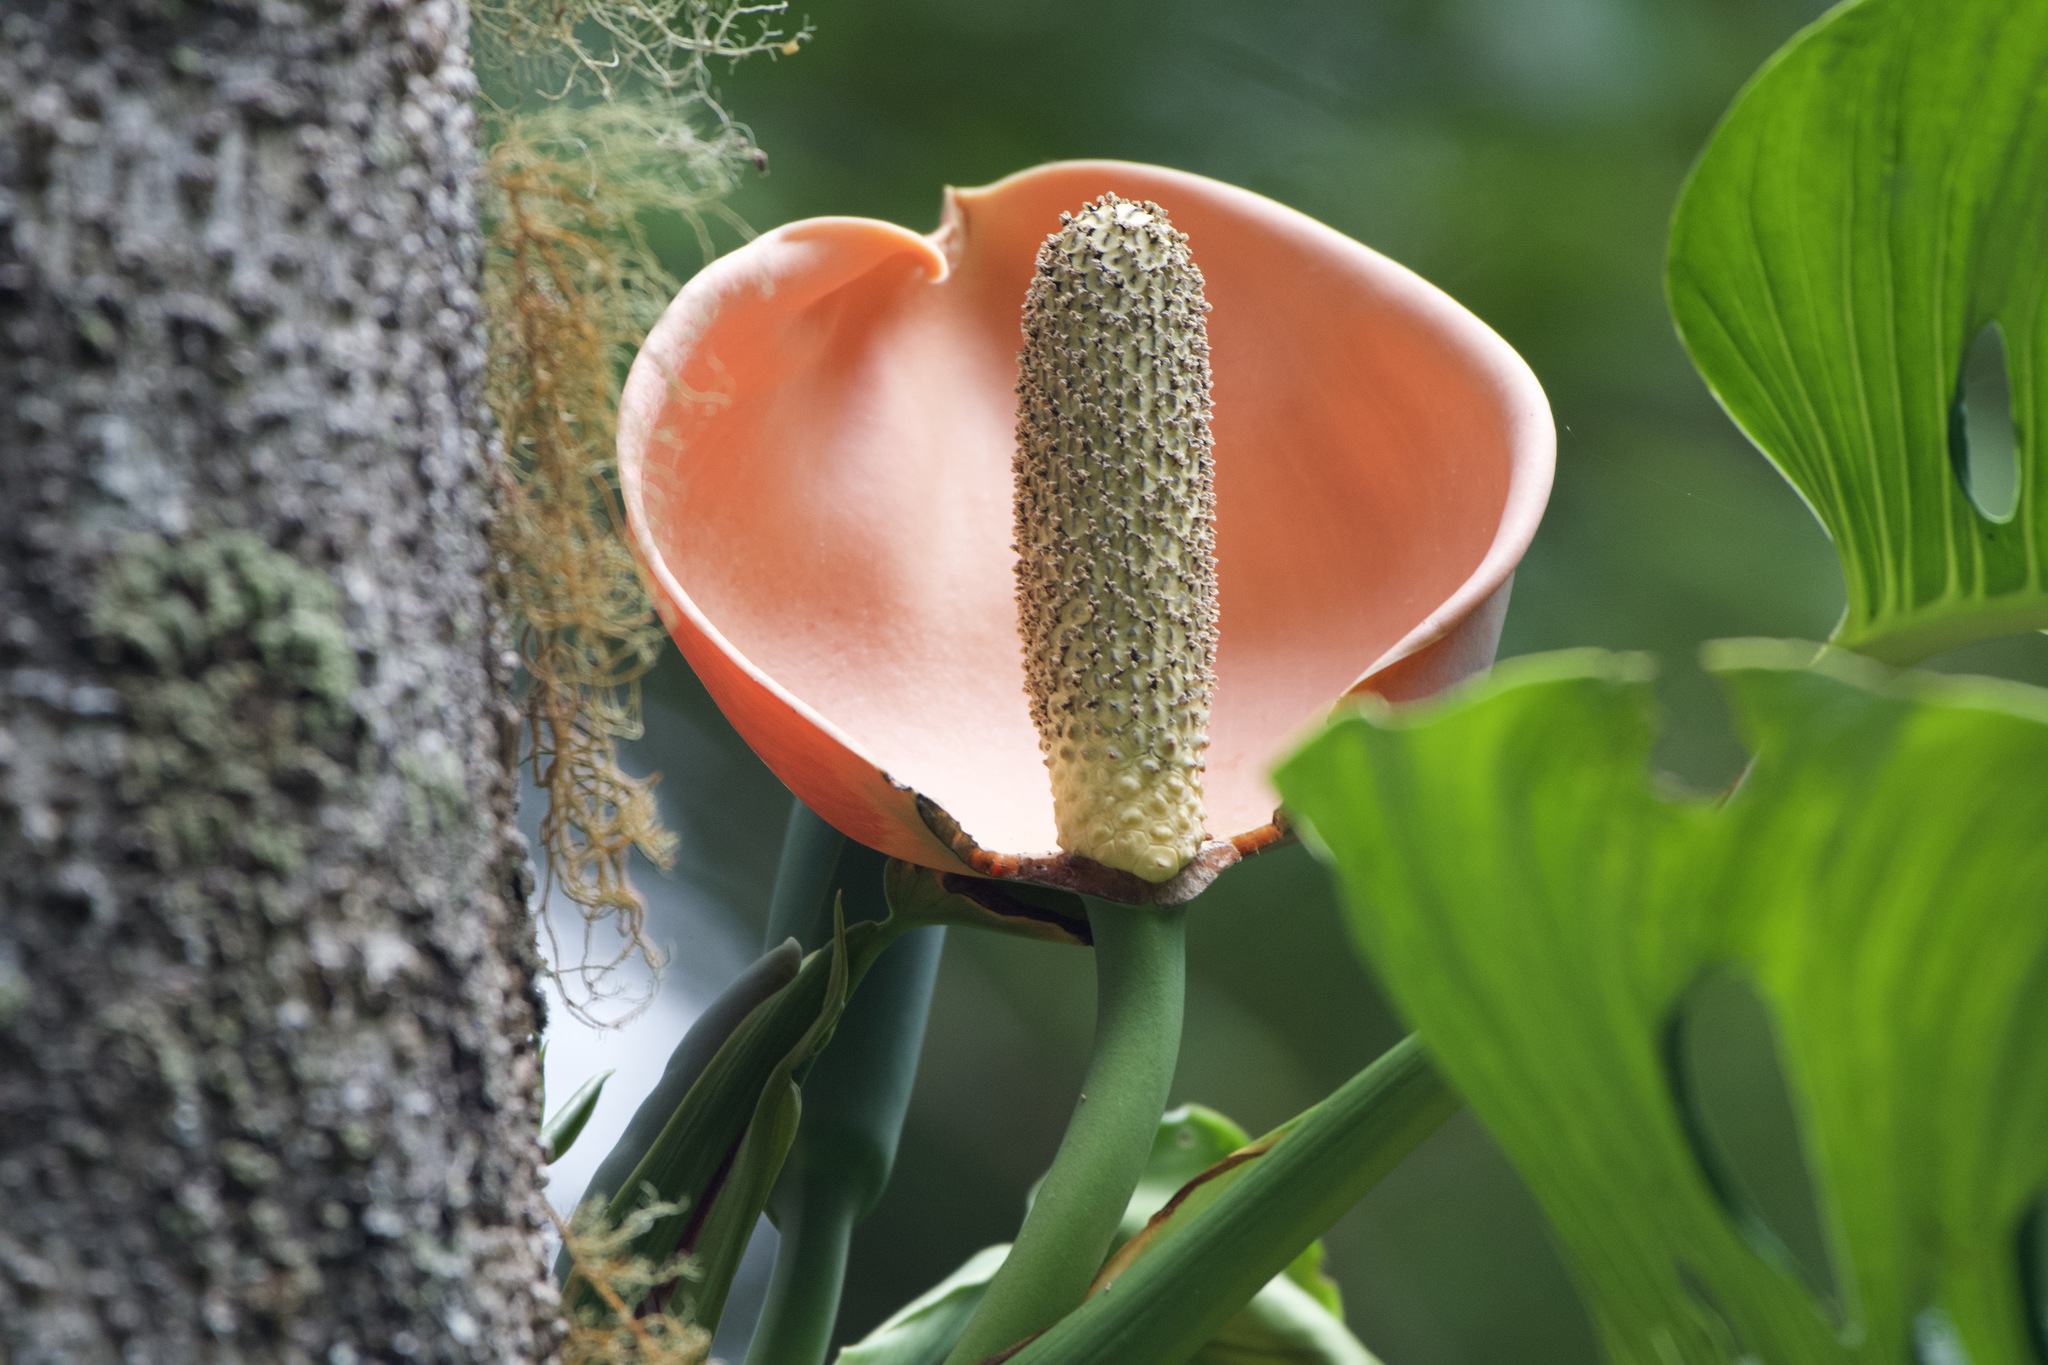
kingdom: Plantae
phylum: Tracheophyta
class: Liliopsida
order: Alismatales
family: Araceae
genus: Monstera
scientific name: Monstera oreophila
